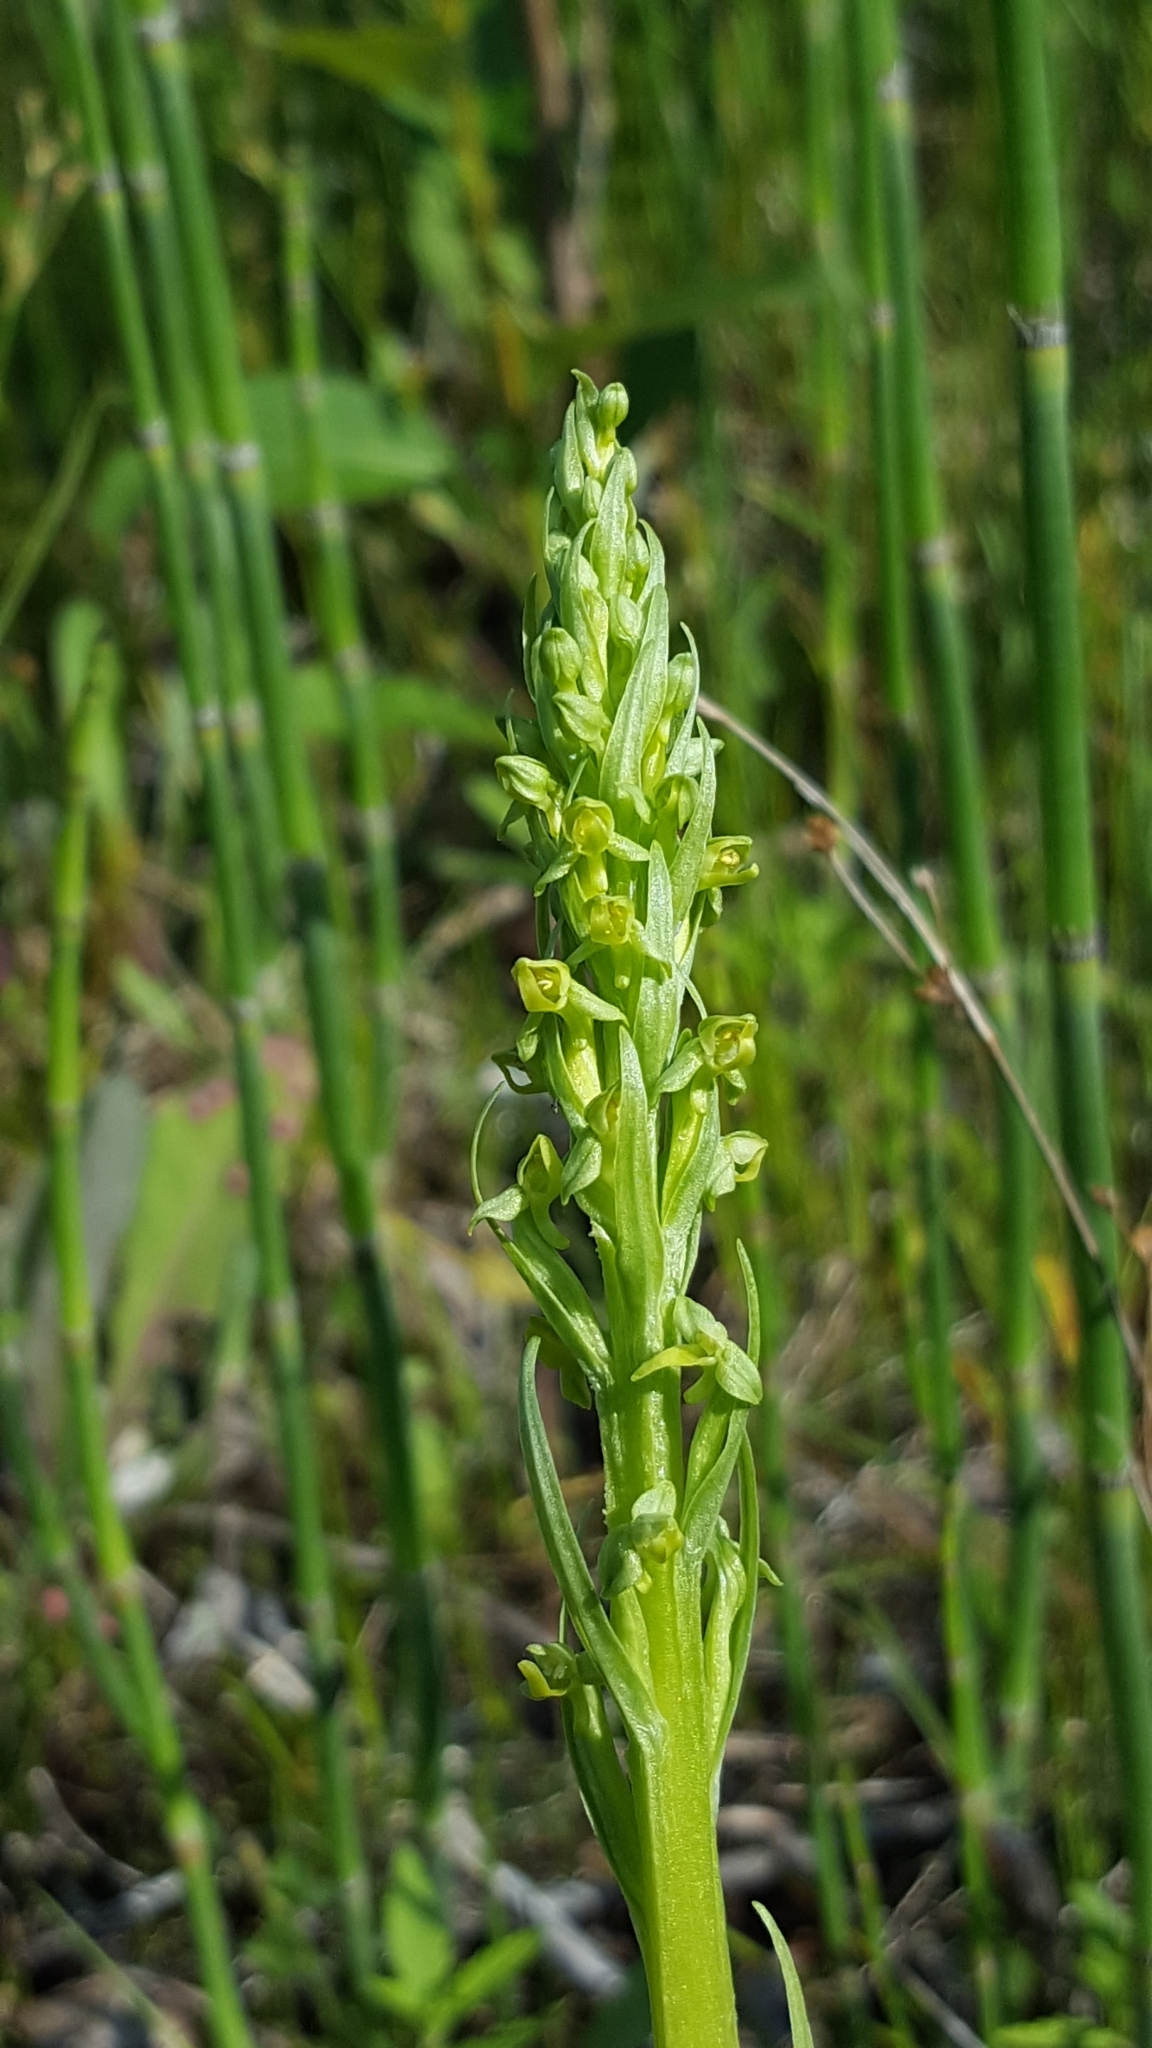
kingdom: Plantae
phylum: Tracheophyta
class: Liliopsida
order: Asparagales
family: Orchidaceae
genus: Platanthera
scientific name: Platanthera aquilonis
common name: Northern green orchid
